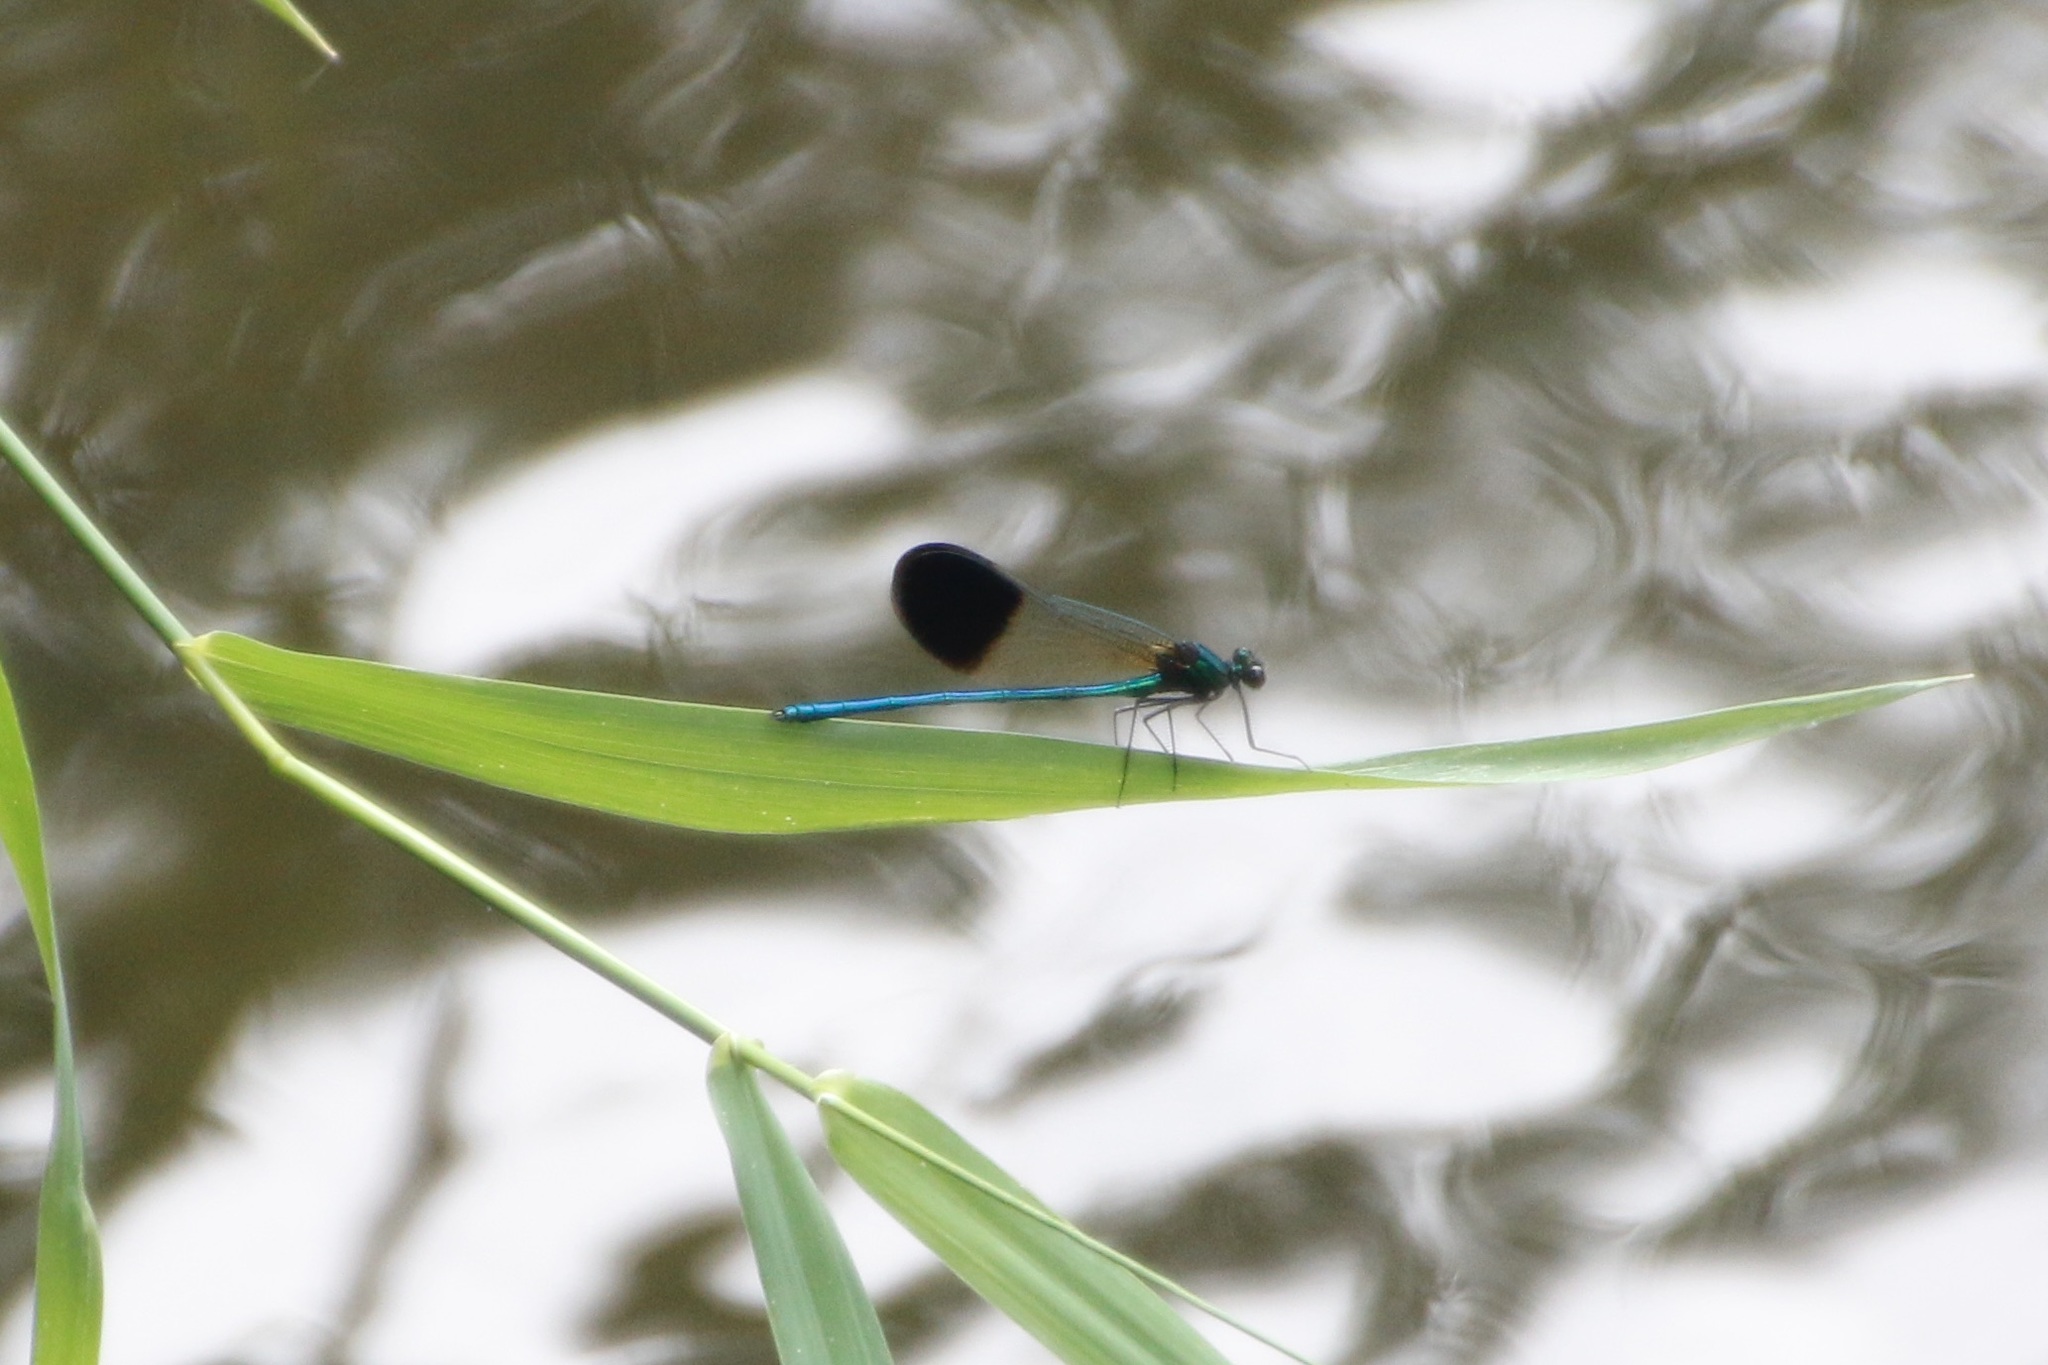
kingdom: Animalia
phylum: Arthropoda
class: Insecta
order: Odonata
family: Calopterygidae
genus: Calopteryx
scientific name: Calopteryx aequabilis
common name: River jewelwing
